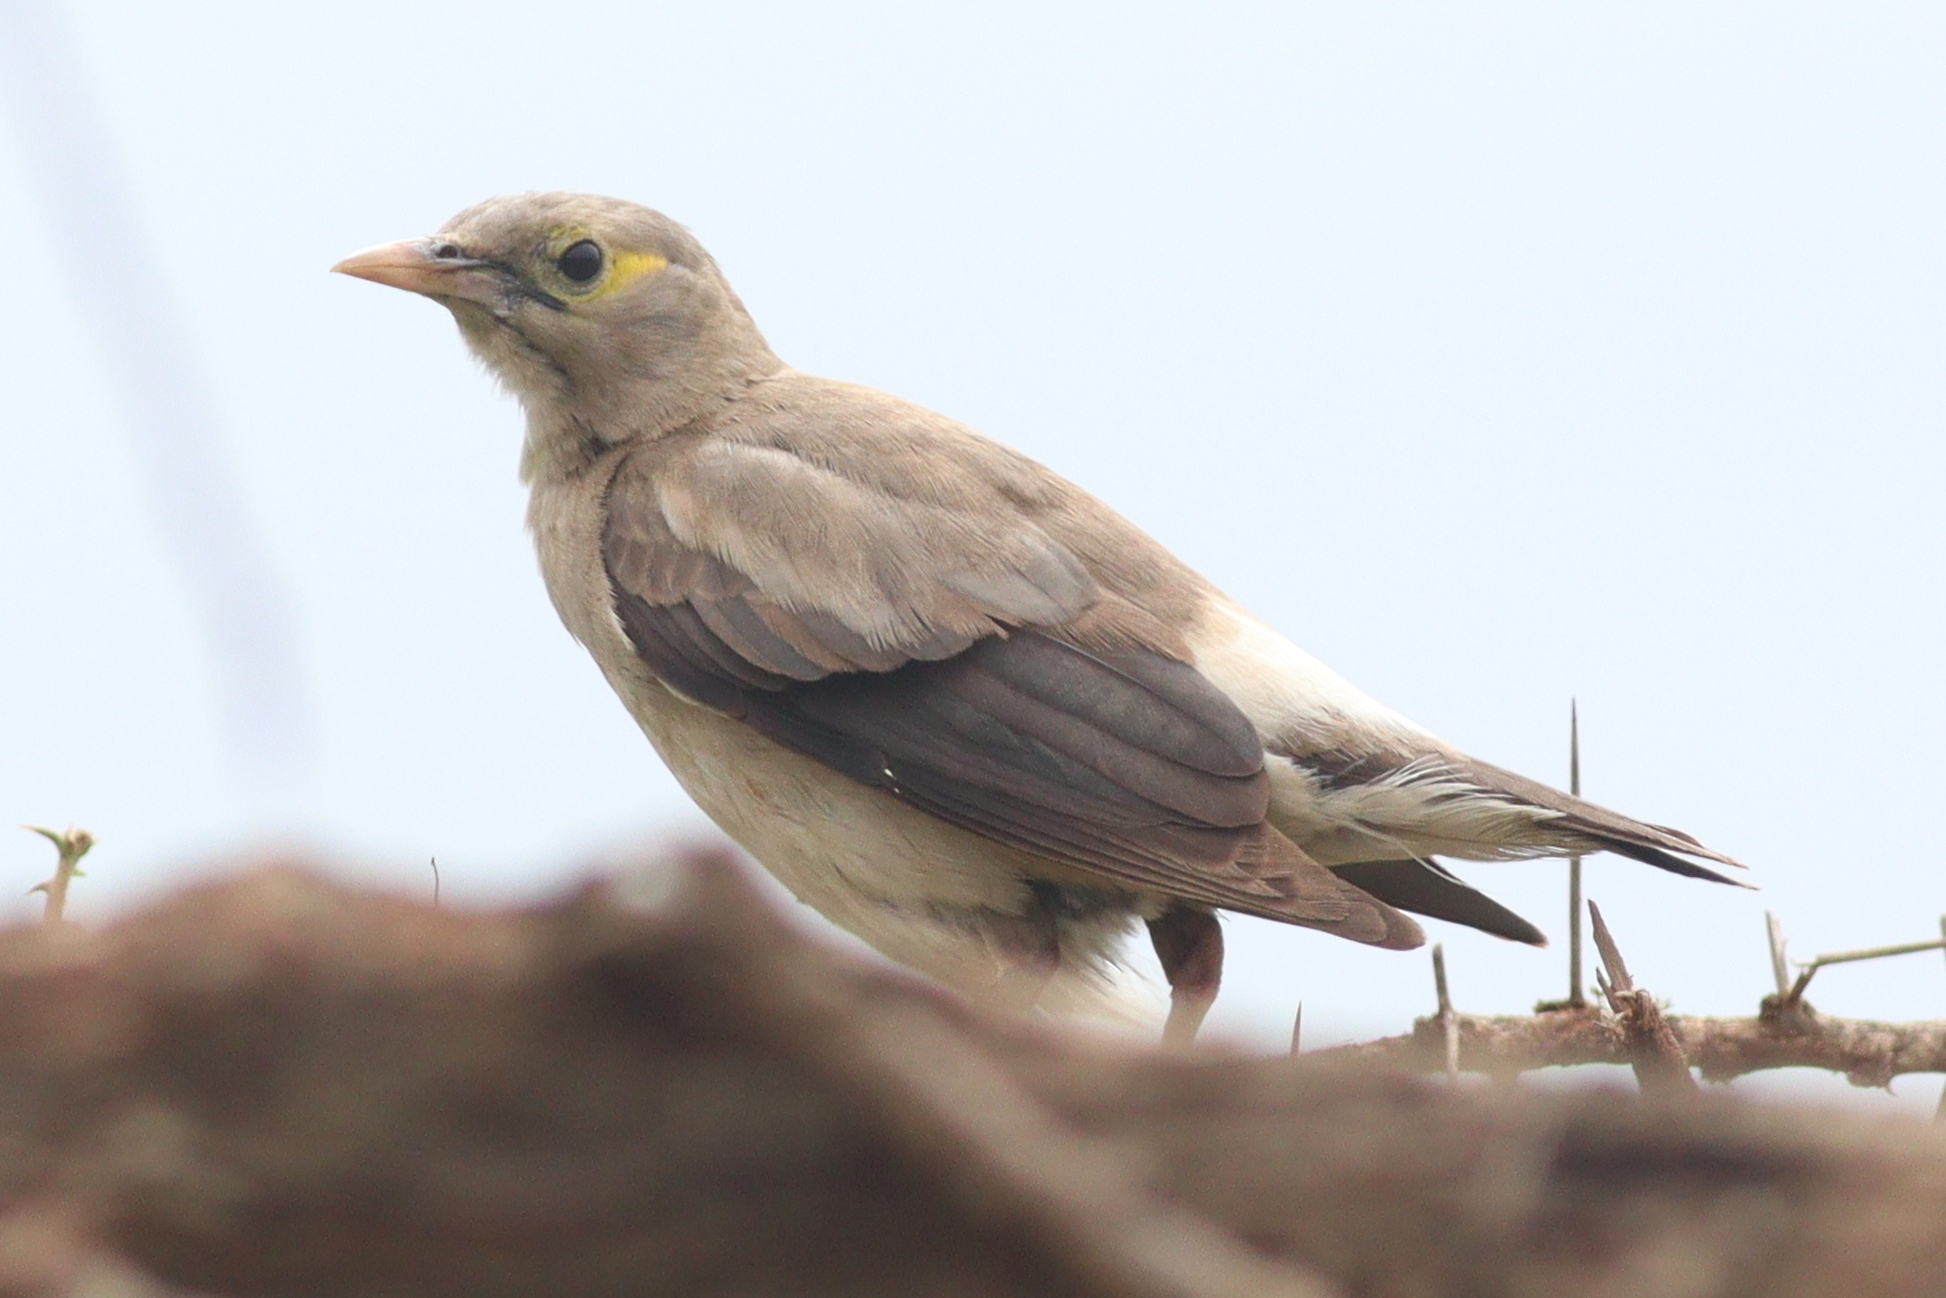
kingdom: Animalia
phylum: Chordata
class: Aves
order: Passeriformes
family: Sturnidae
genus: Creatophora
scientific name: Creatophora cinerea
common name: Wattled starling
